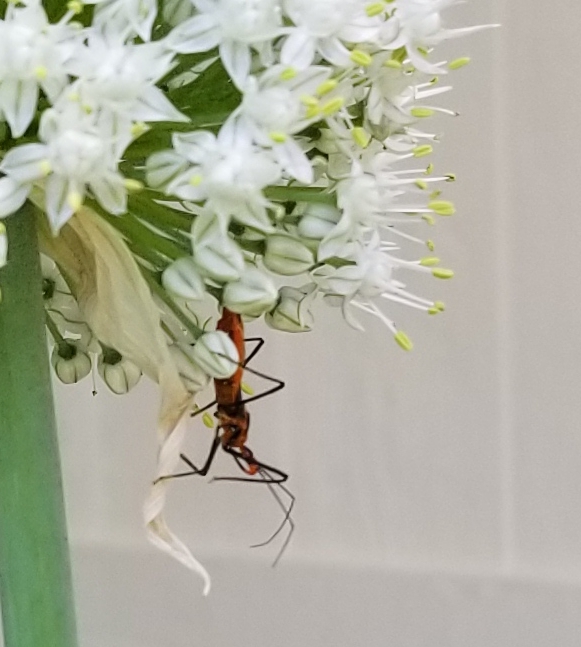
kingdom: Animalia
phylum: Arthropoda
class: Insecta
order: Hemiptera
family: Reduviidae
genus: Zelus
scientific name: Zelus longipes
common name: Milkweed assassin bug
